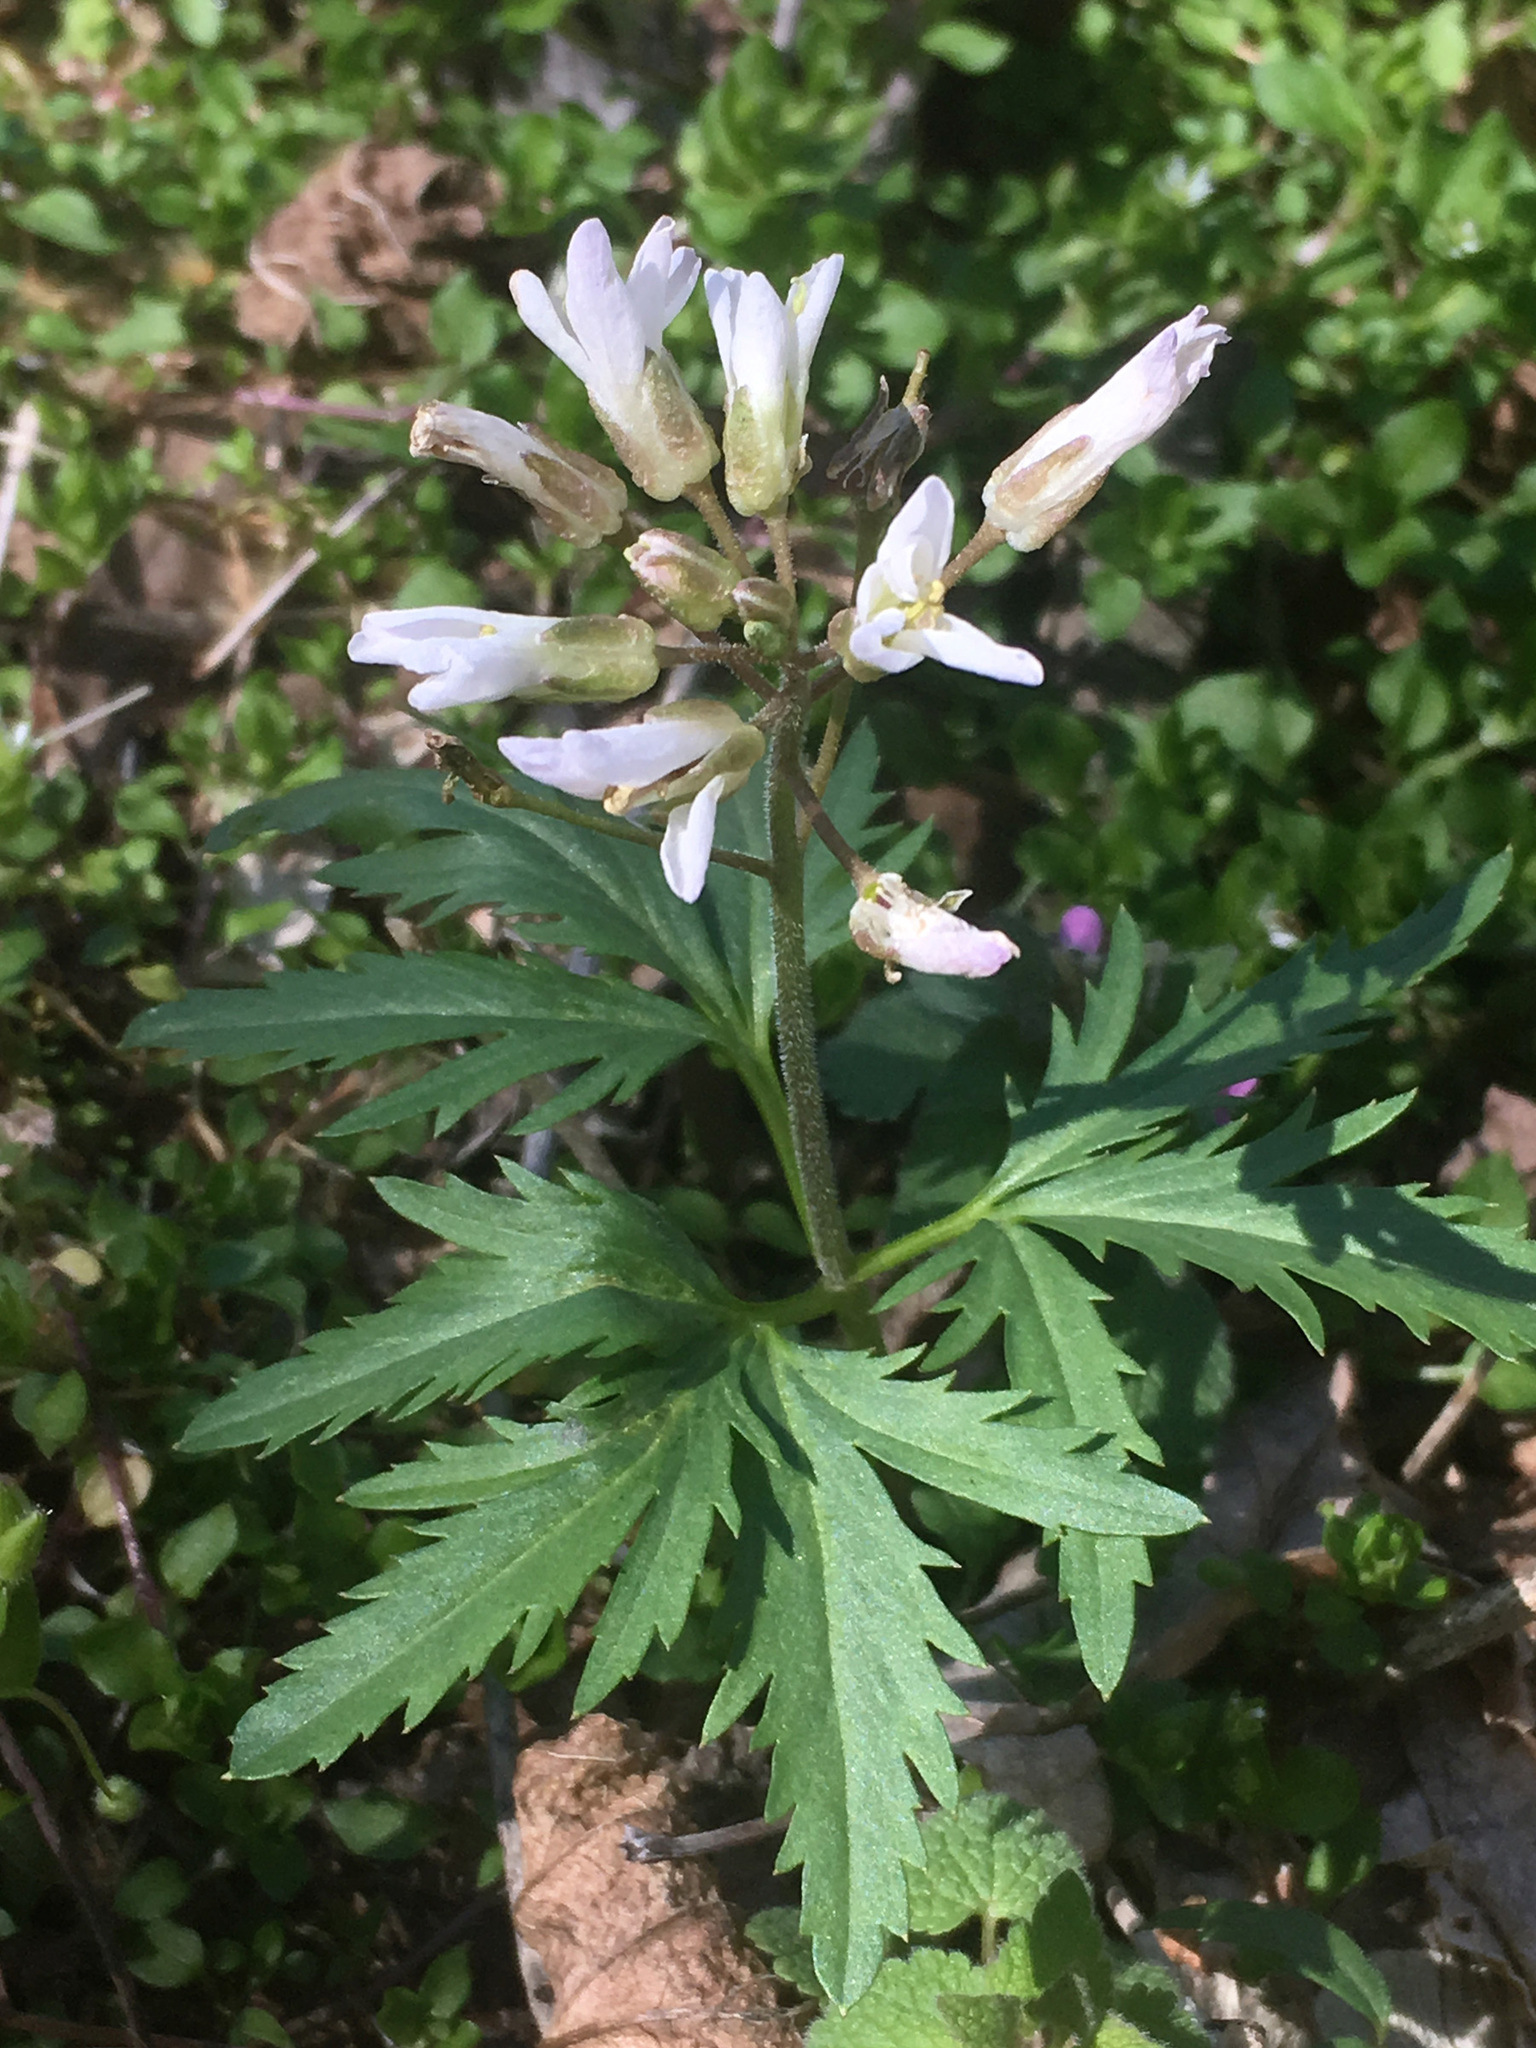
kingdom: Plantae
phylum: Tracheophyta
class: Magnoliopsida
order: Brassicales
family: Brassicaceae
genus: Cardamine
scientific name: Cardamine concatenata
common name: Cut-leaf toothcup
